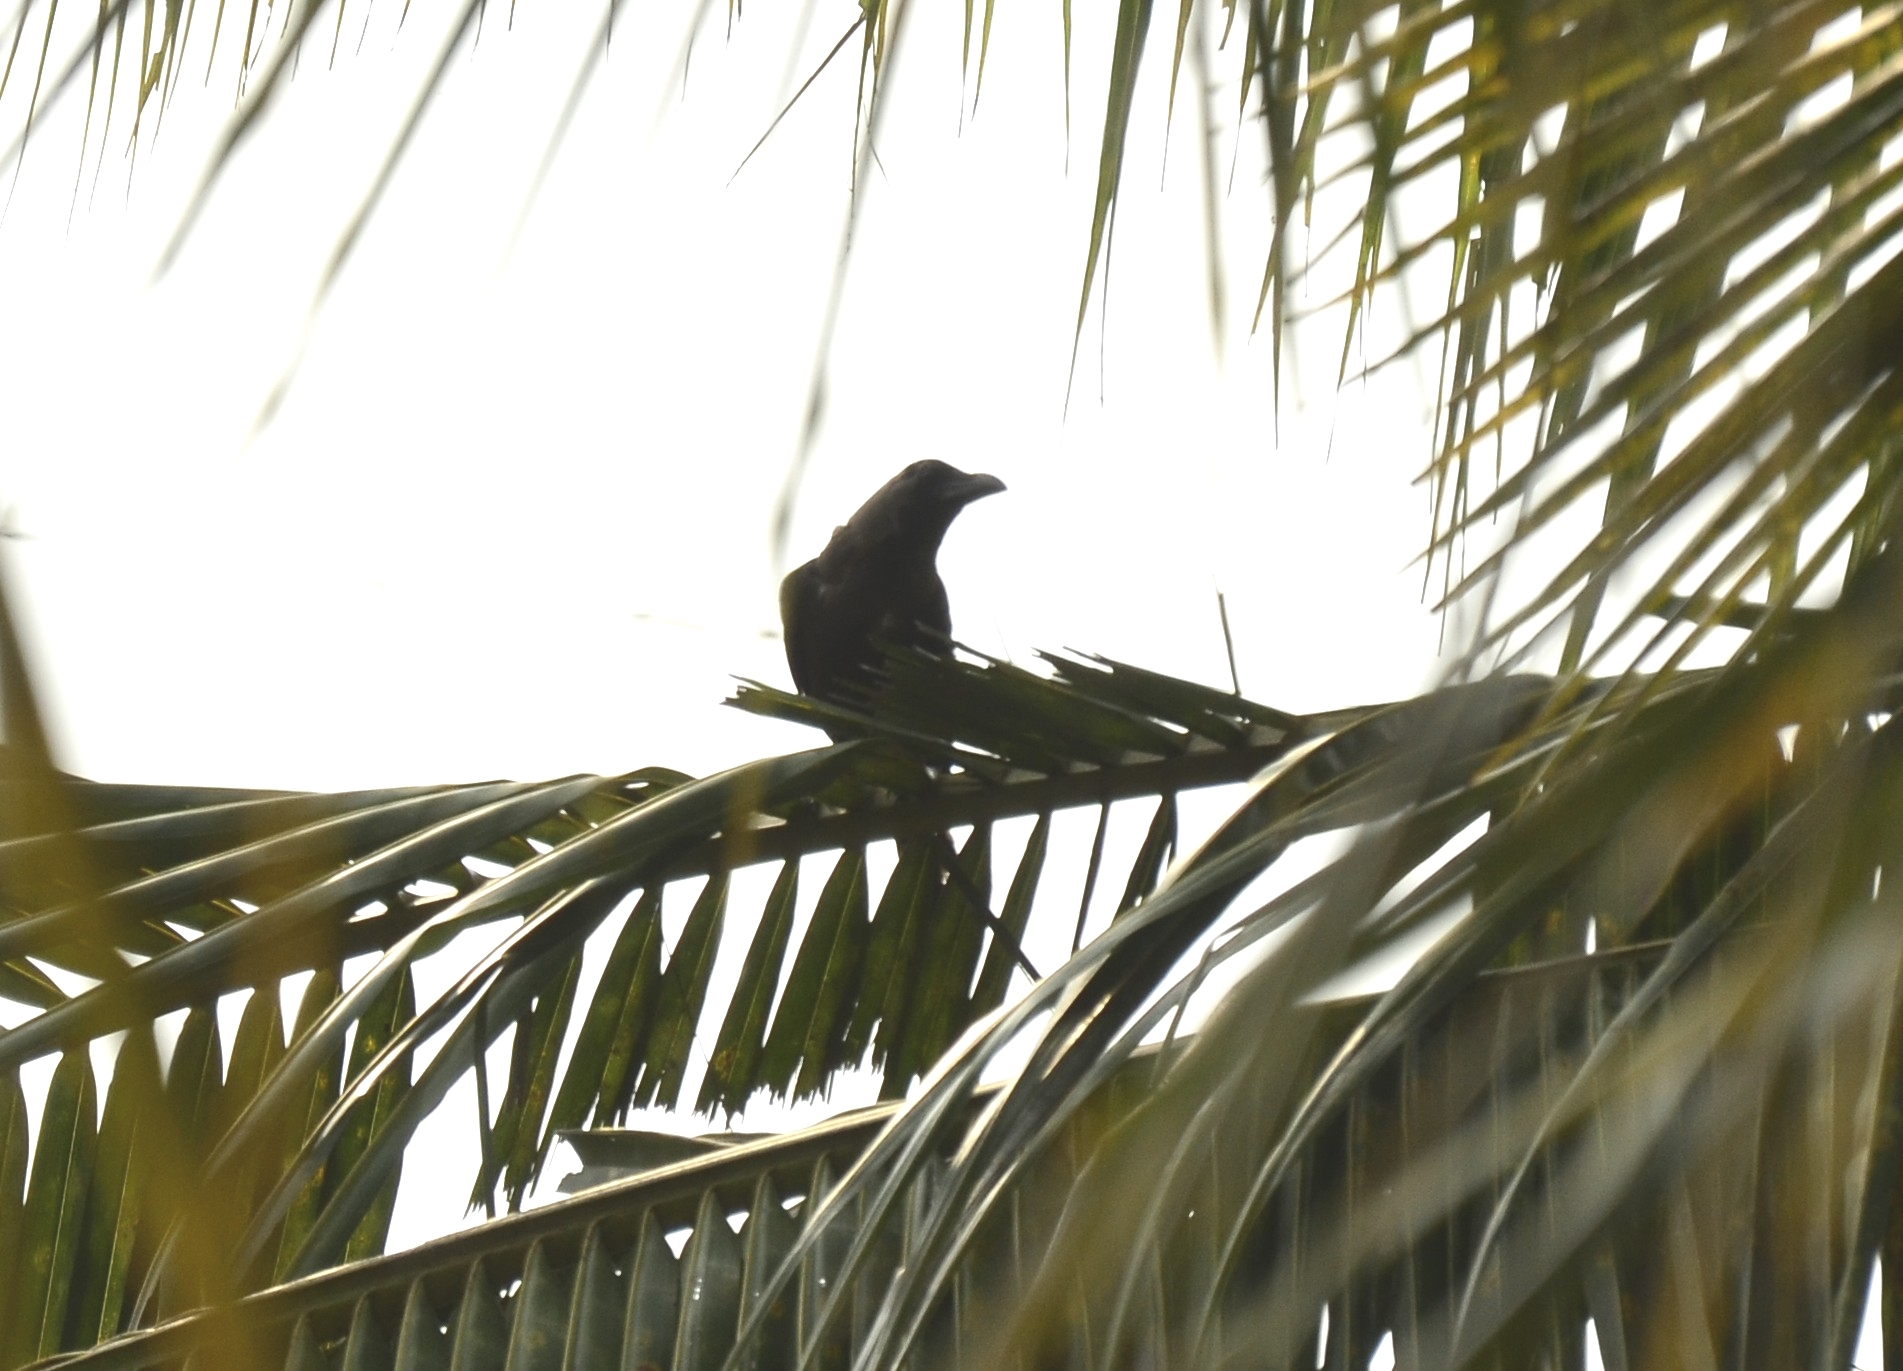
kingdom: Animalia
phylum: Chordata
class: Aves
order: Passeriformes
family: Corvidae
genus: Corvus
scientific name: Corvus splendens
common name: House crow
